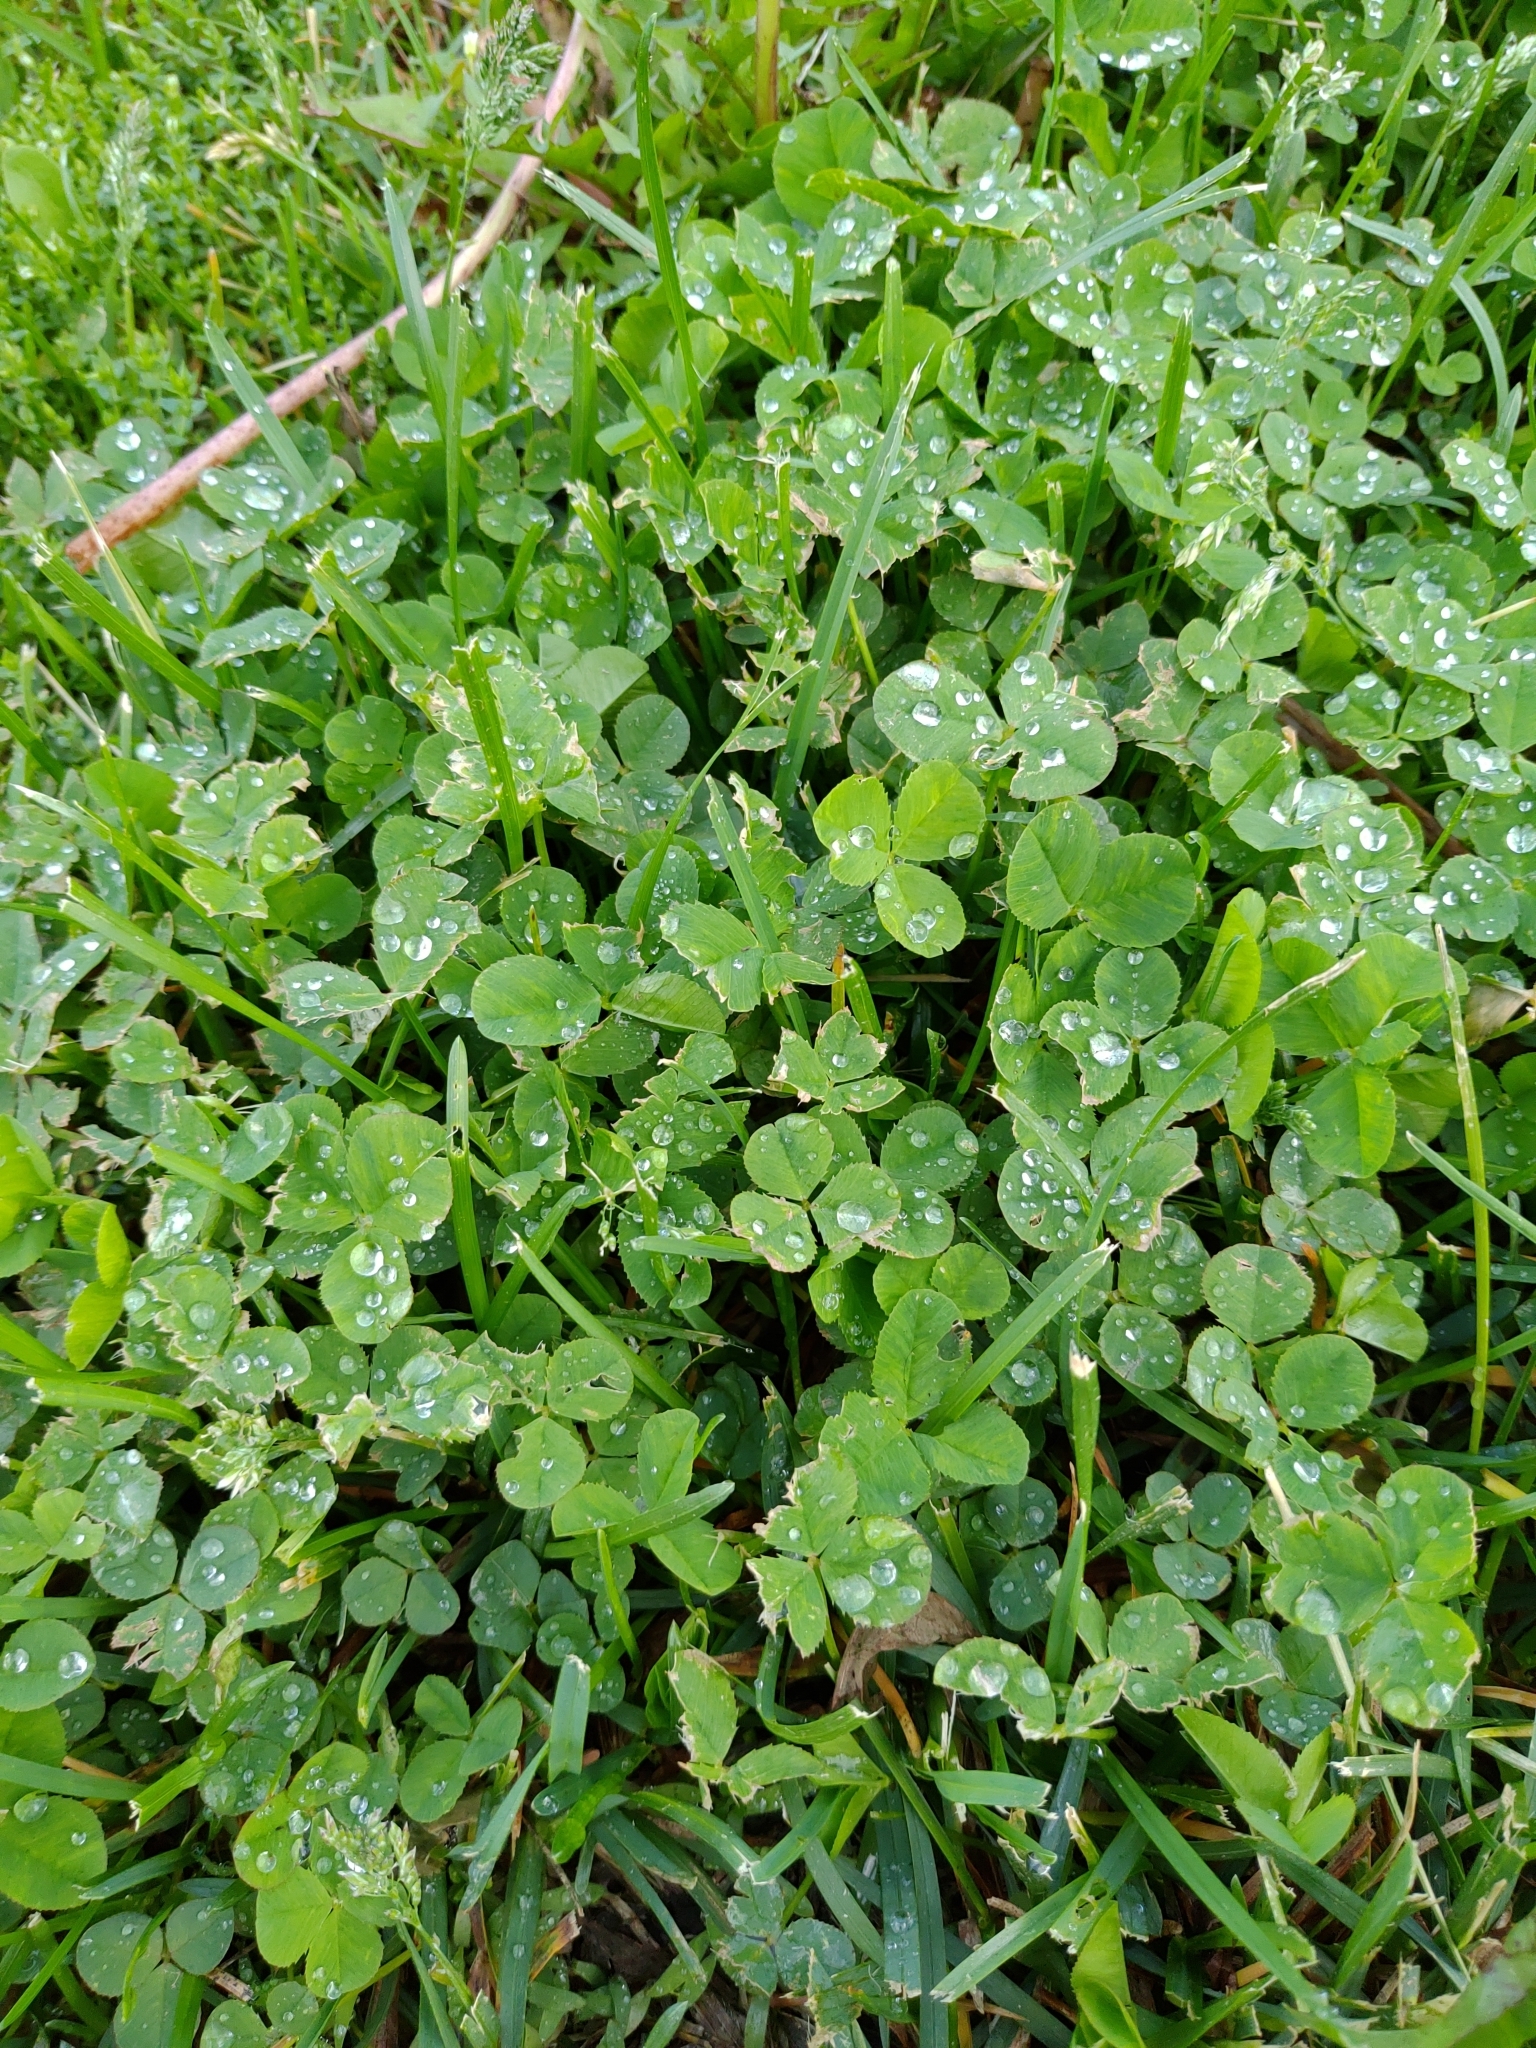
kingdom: Plantae
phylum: Tracheophyta
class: Magnoliopsida
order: Fabales
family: Fabaceae
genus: Trifolium
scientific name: Trifolium repens
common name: White clover
